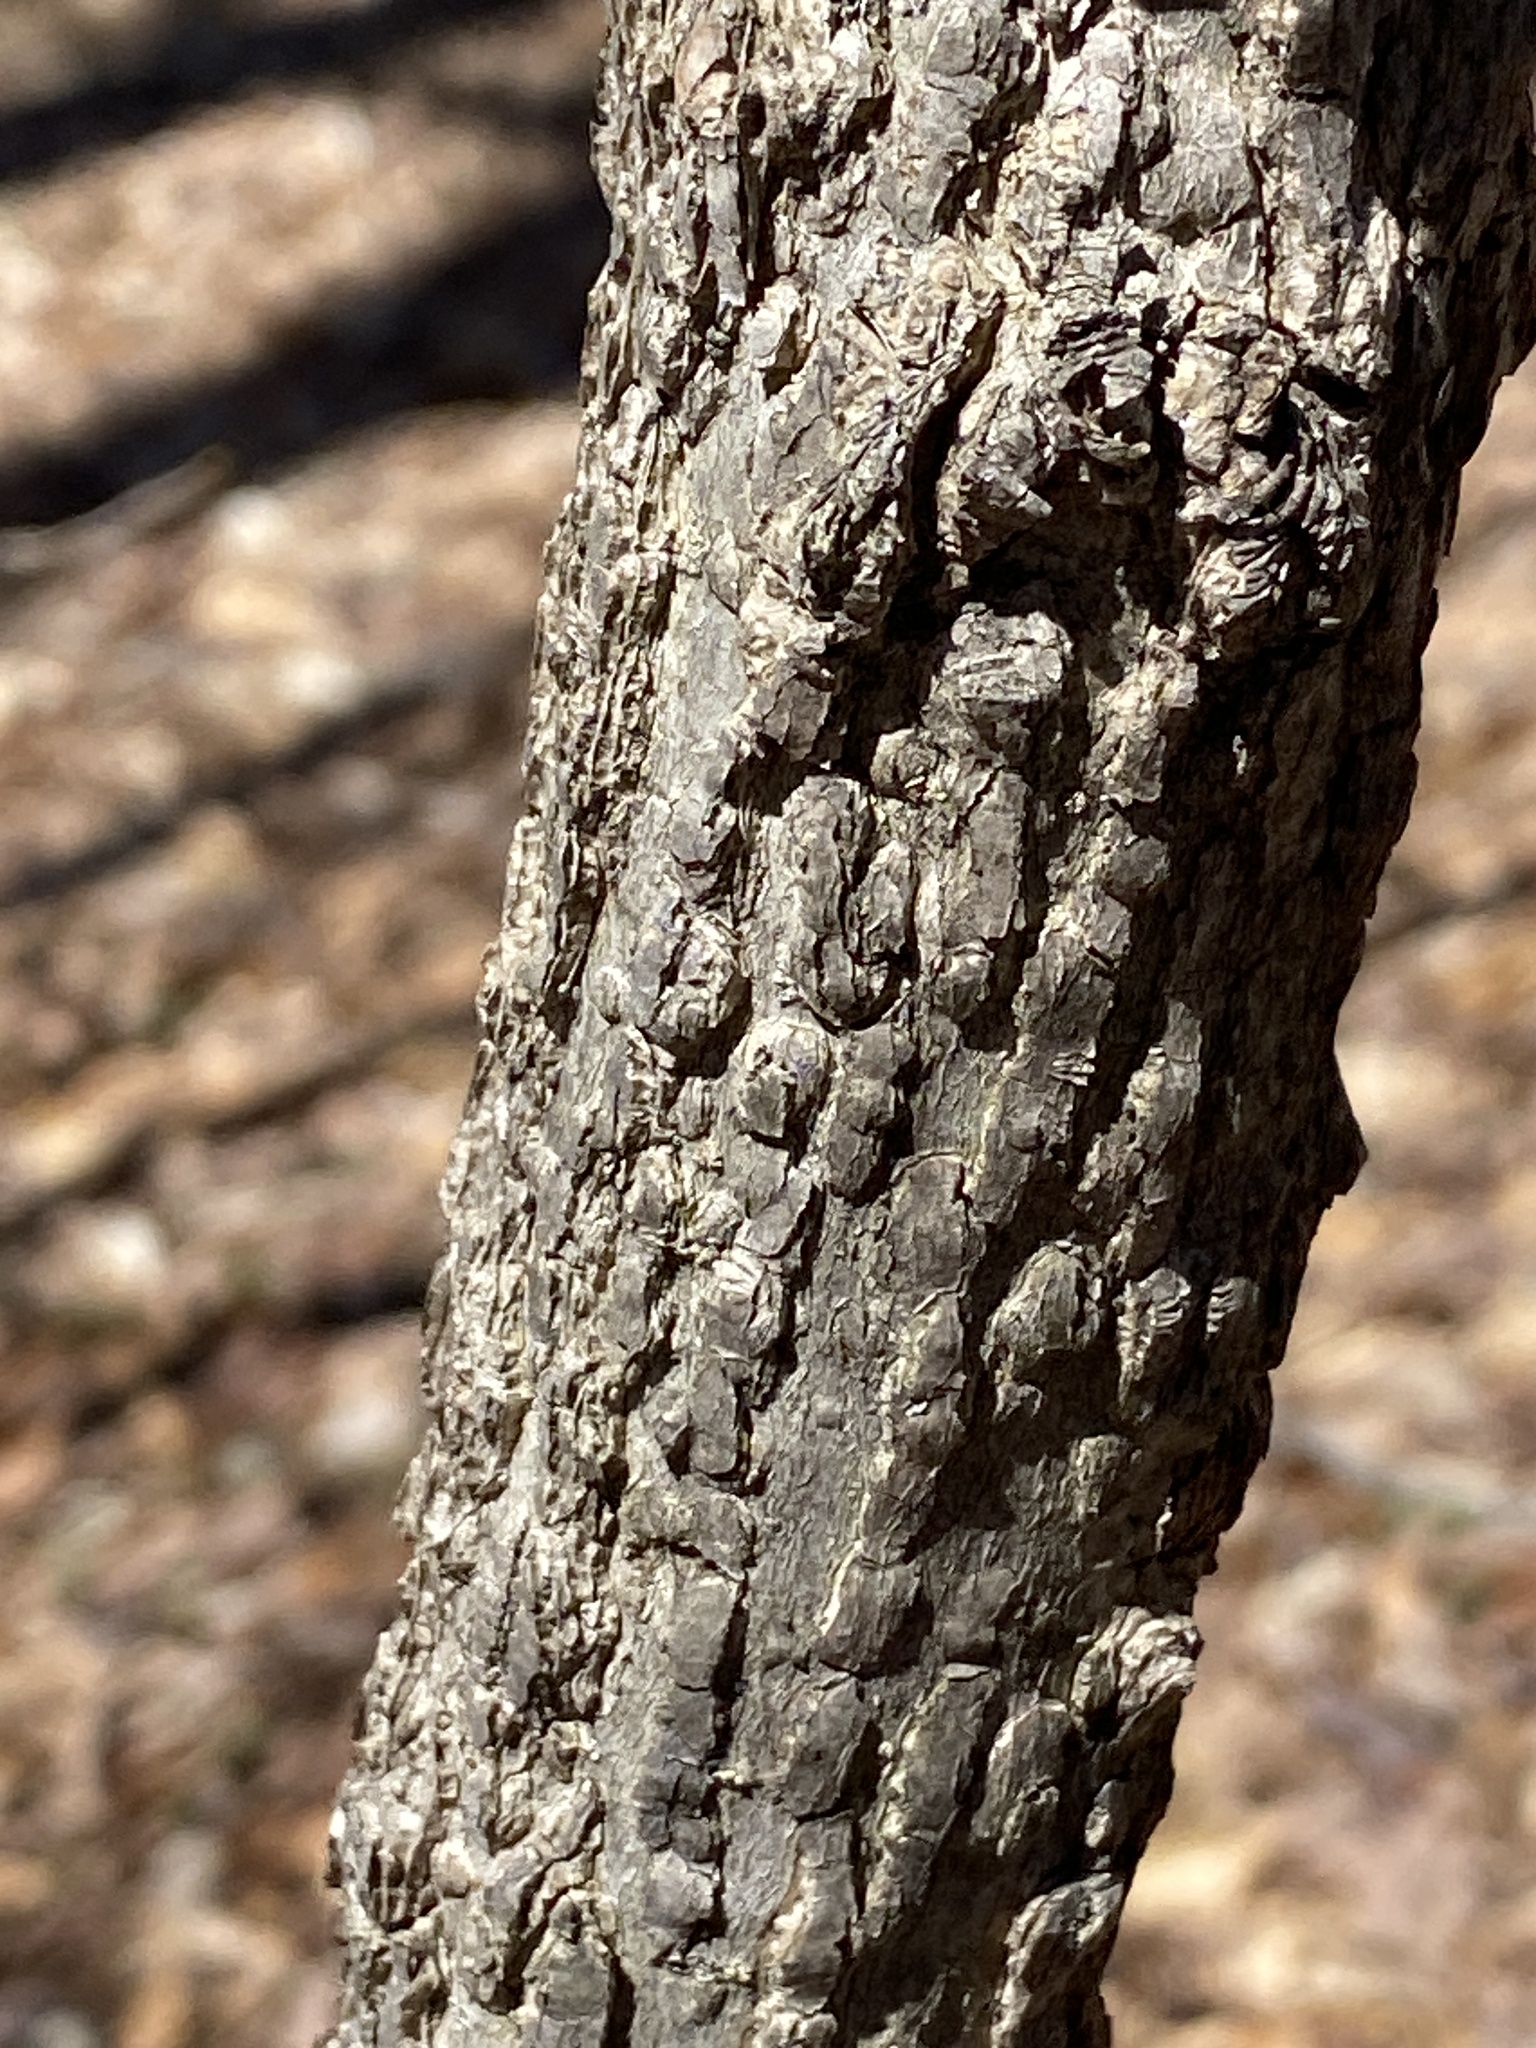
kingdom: Plantae
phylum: Tracheophyta
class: Magnoliopsida
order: Rosales
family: Cannabaceae
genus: Celtis
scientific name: Celtis occidentalis
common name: Common hackberry
